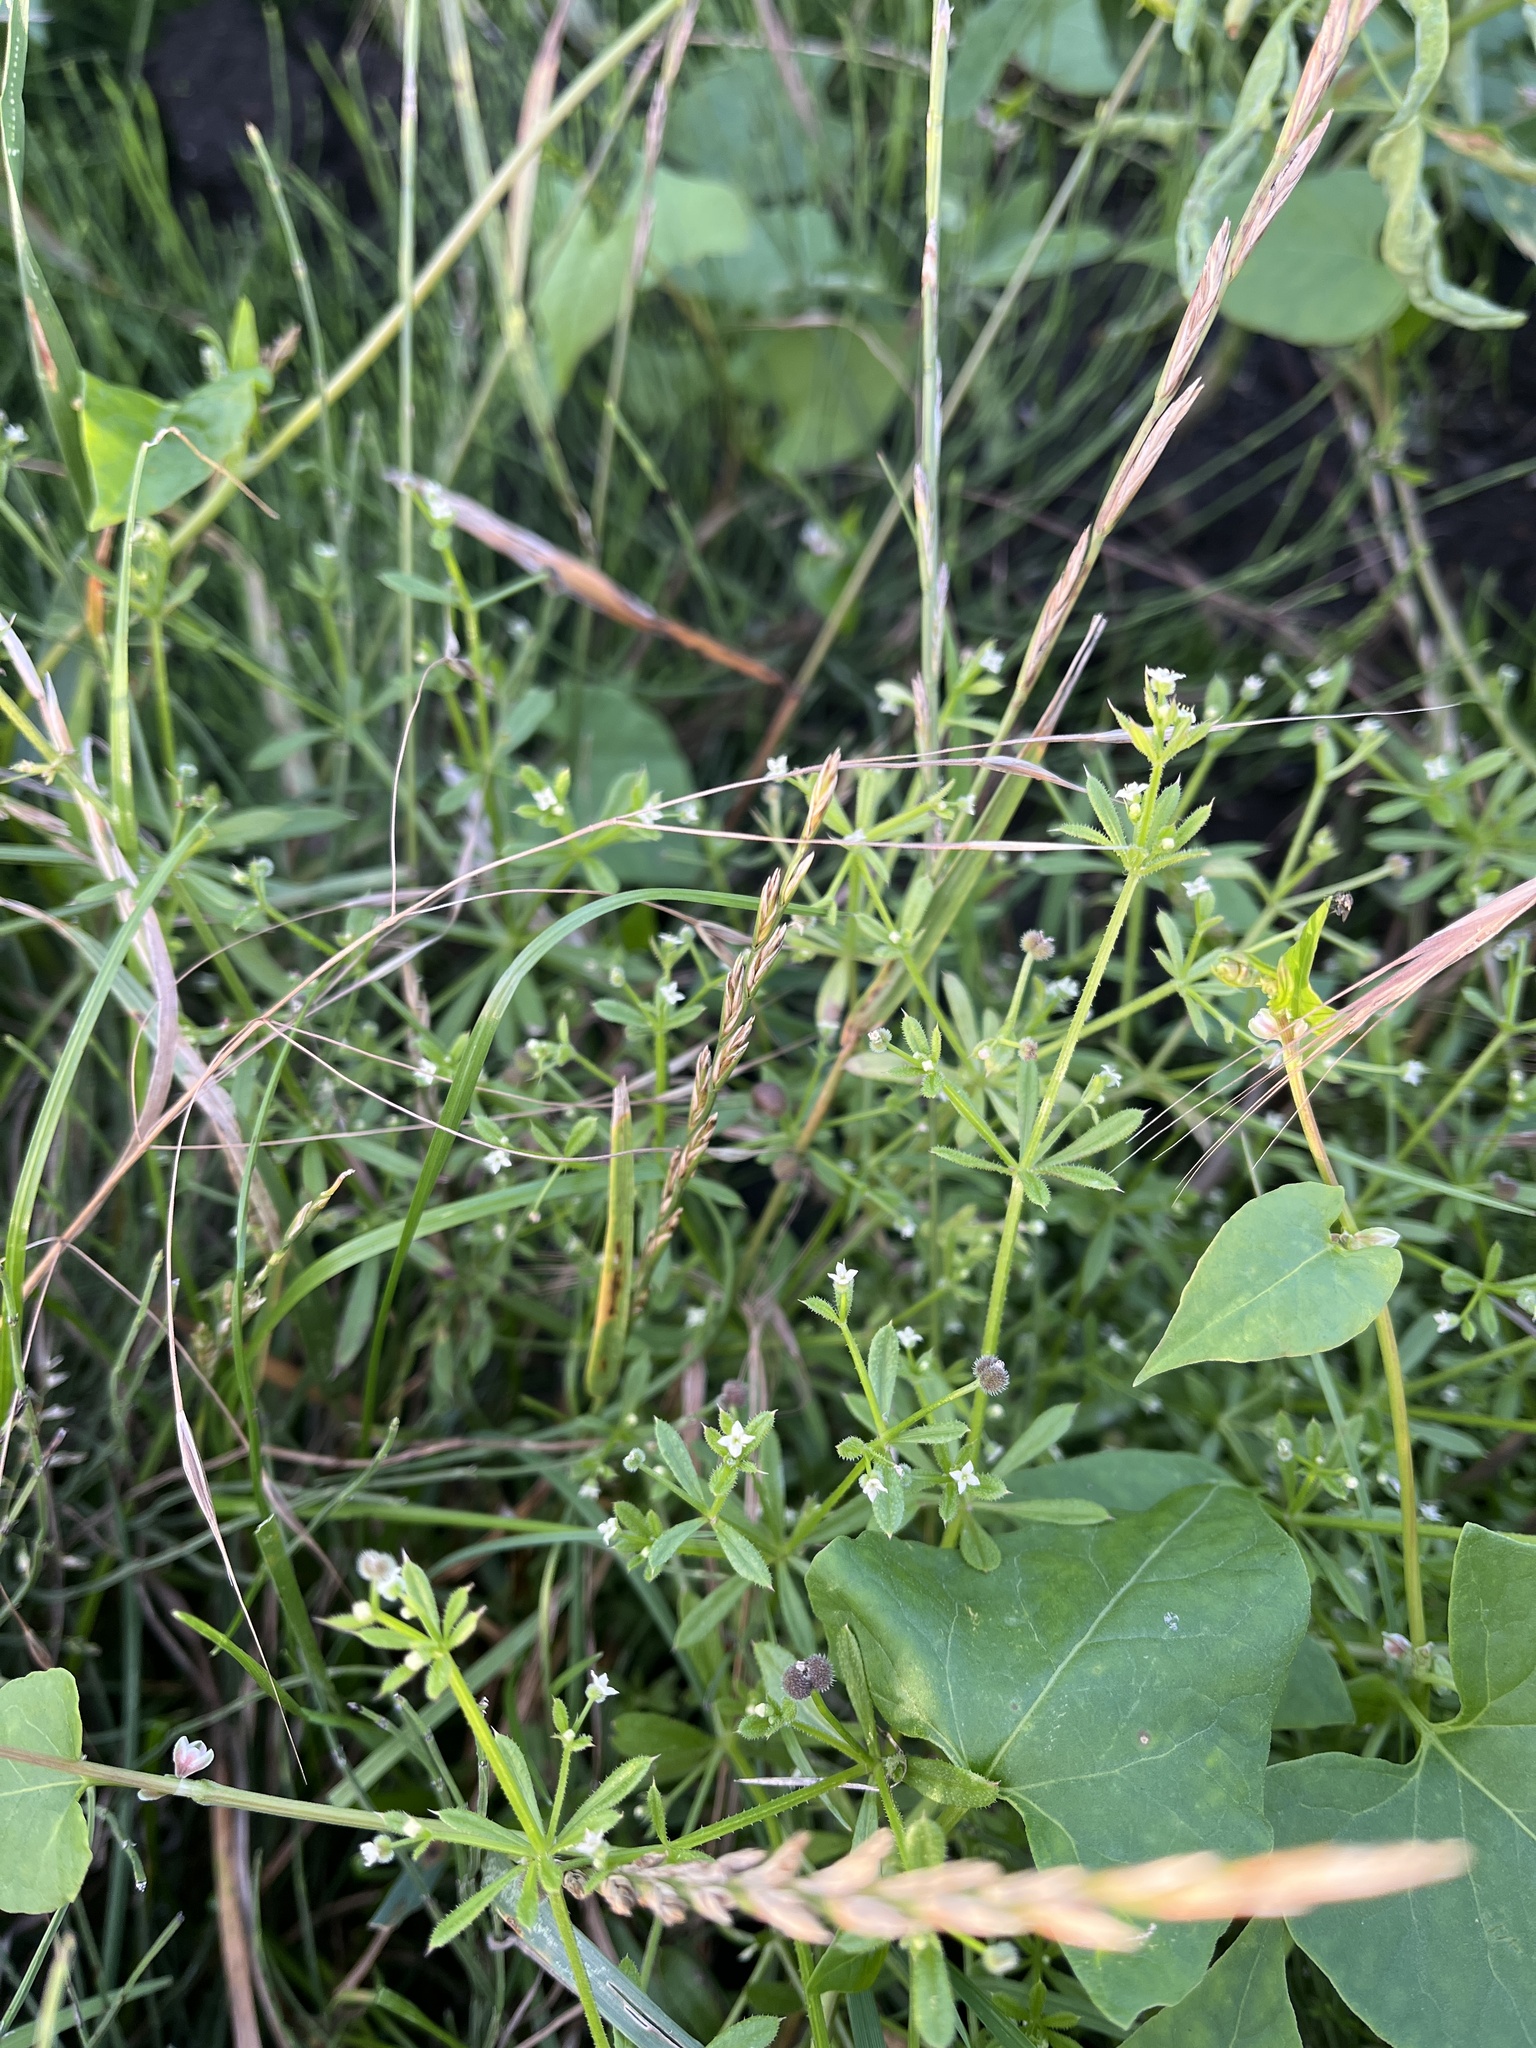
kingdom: Plantae
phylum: Tracheophyta
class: Magnoliopsida
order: Gentianales
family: Rubiaceae
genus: Galium
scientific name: Galium aparine
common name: Cleavers
